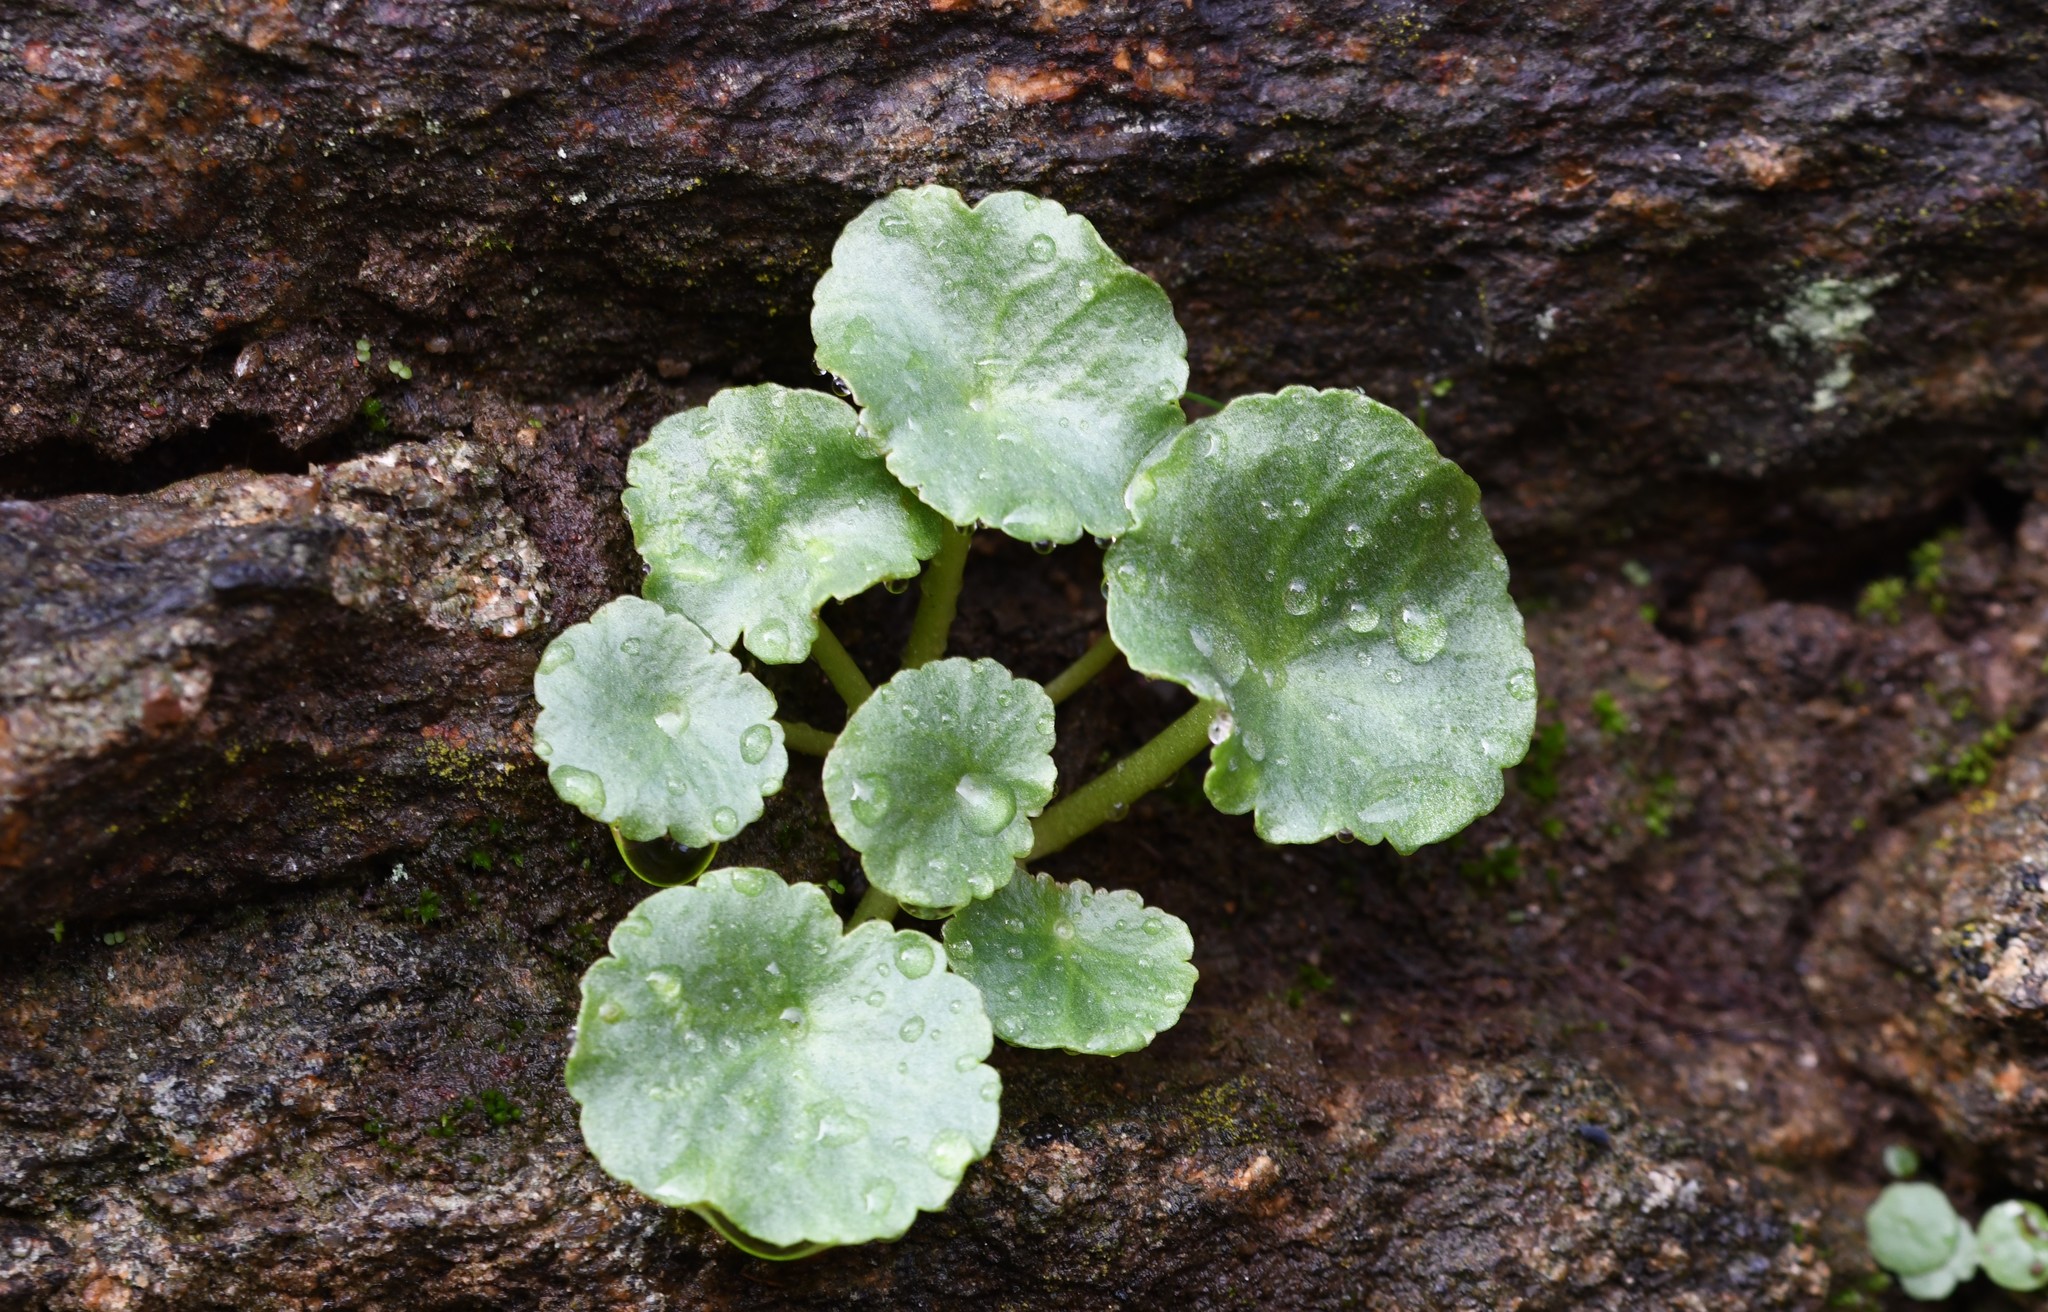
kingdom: Plantae
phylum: Tracheophyta
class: Magnoliopsida
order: Saxifragales
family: Crassulaceae
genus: Umbilicus
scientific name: Umbilicus rupestris
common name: Navelwort
